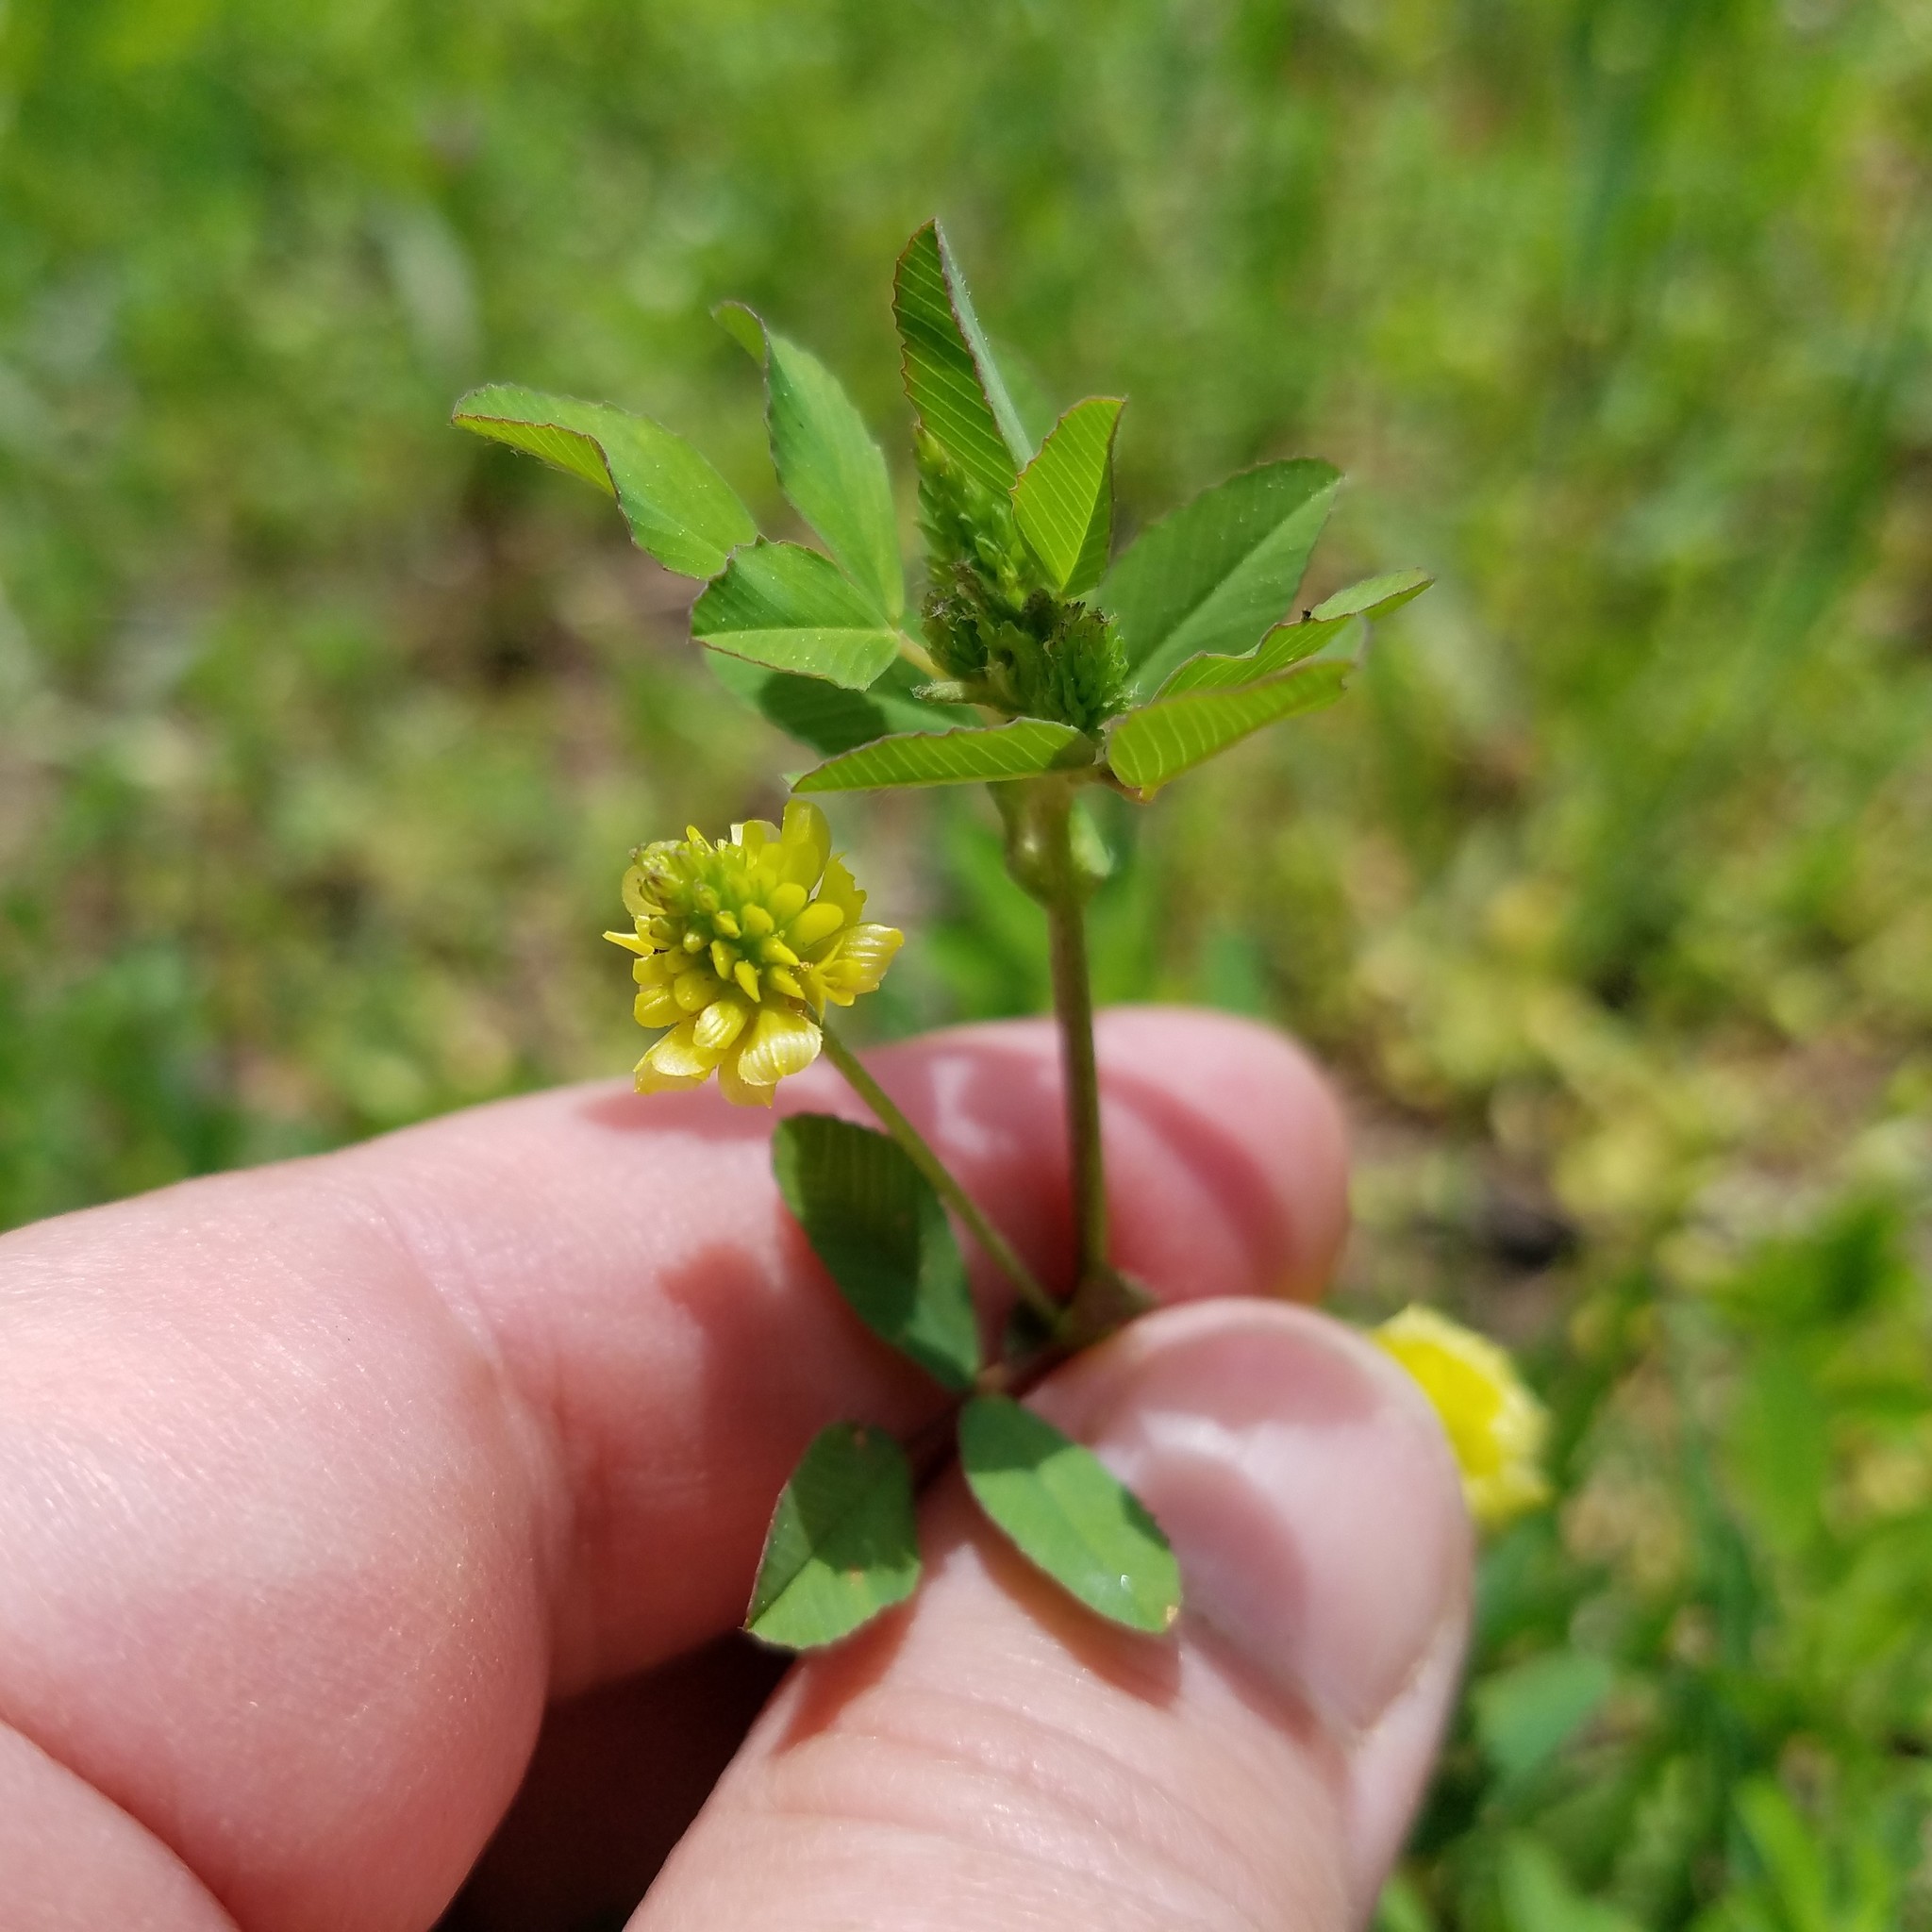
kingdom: Plantae
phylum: Tracheophyta
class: Magnoliopsida
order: Fabales
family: Fabaceae
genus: Trifolium
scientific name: Trifolium campestre
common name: Field clover
